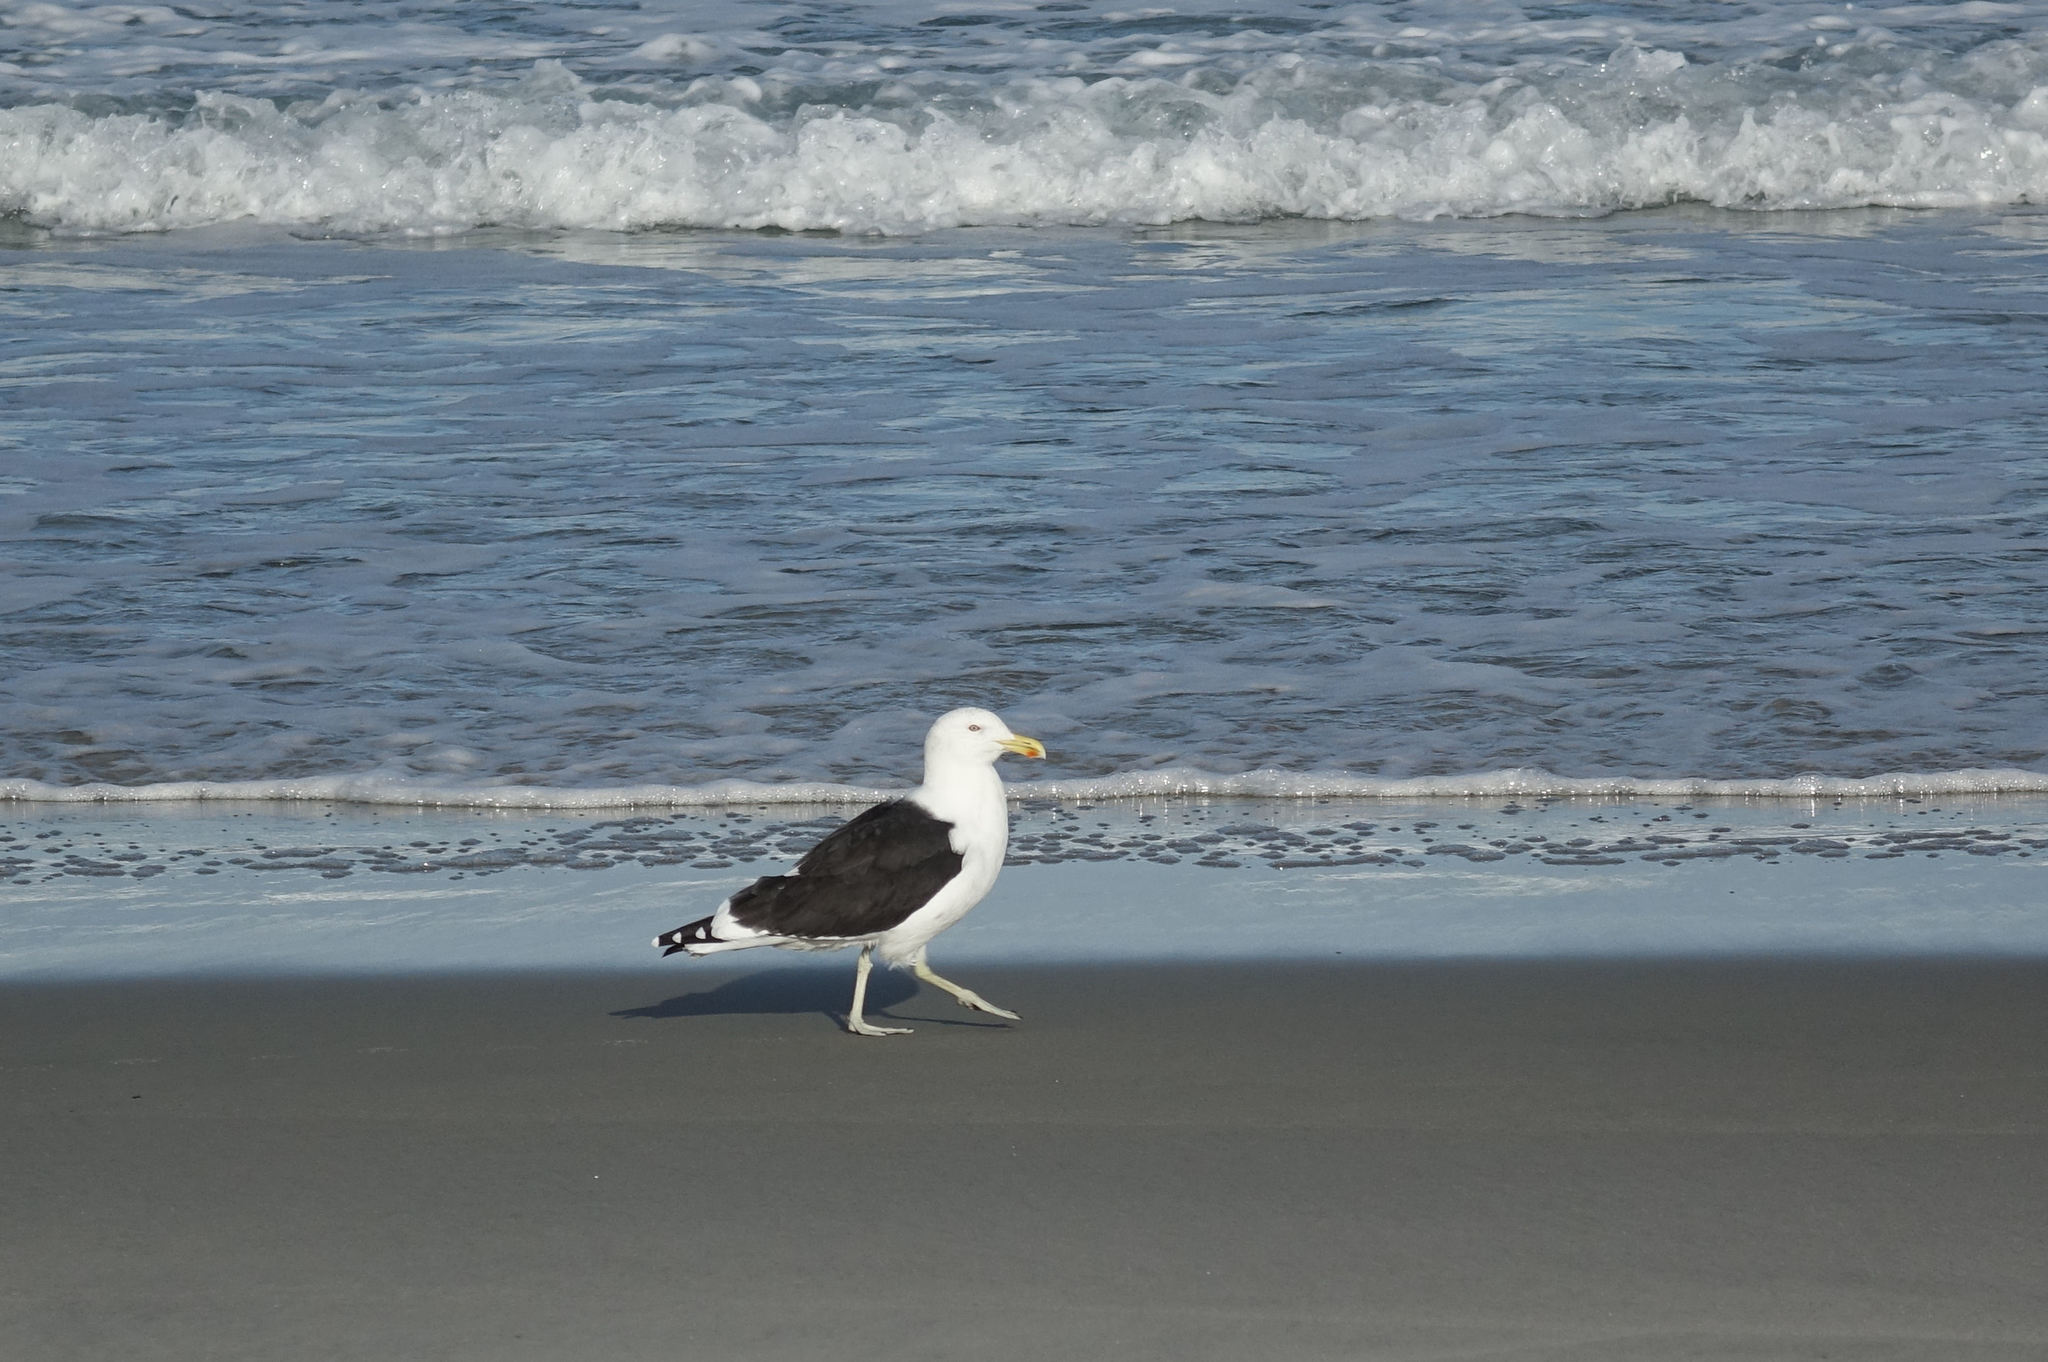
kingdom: Animalia
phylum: Chordata
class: Aves
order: Charadriiformes
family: Laridae
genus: Larus
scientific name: Larus dominicanus
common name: Kelp gull
